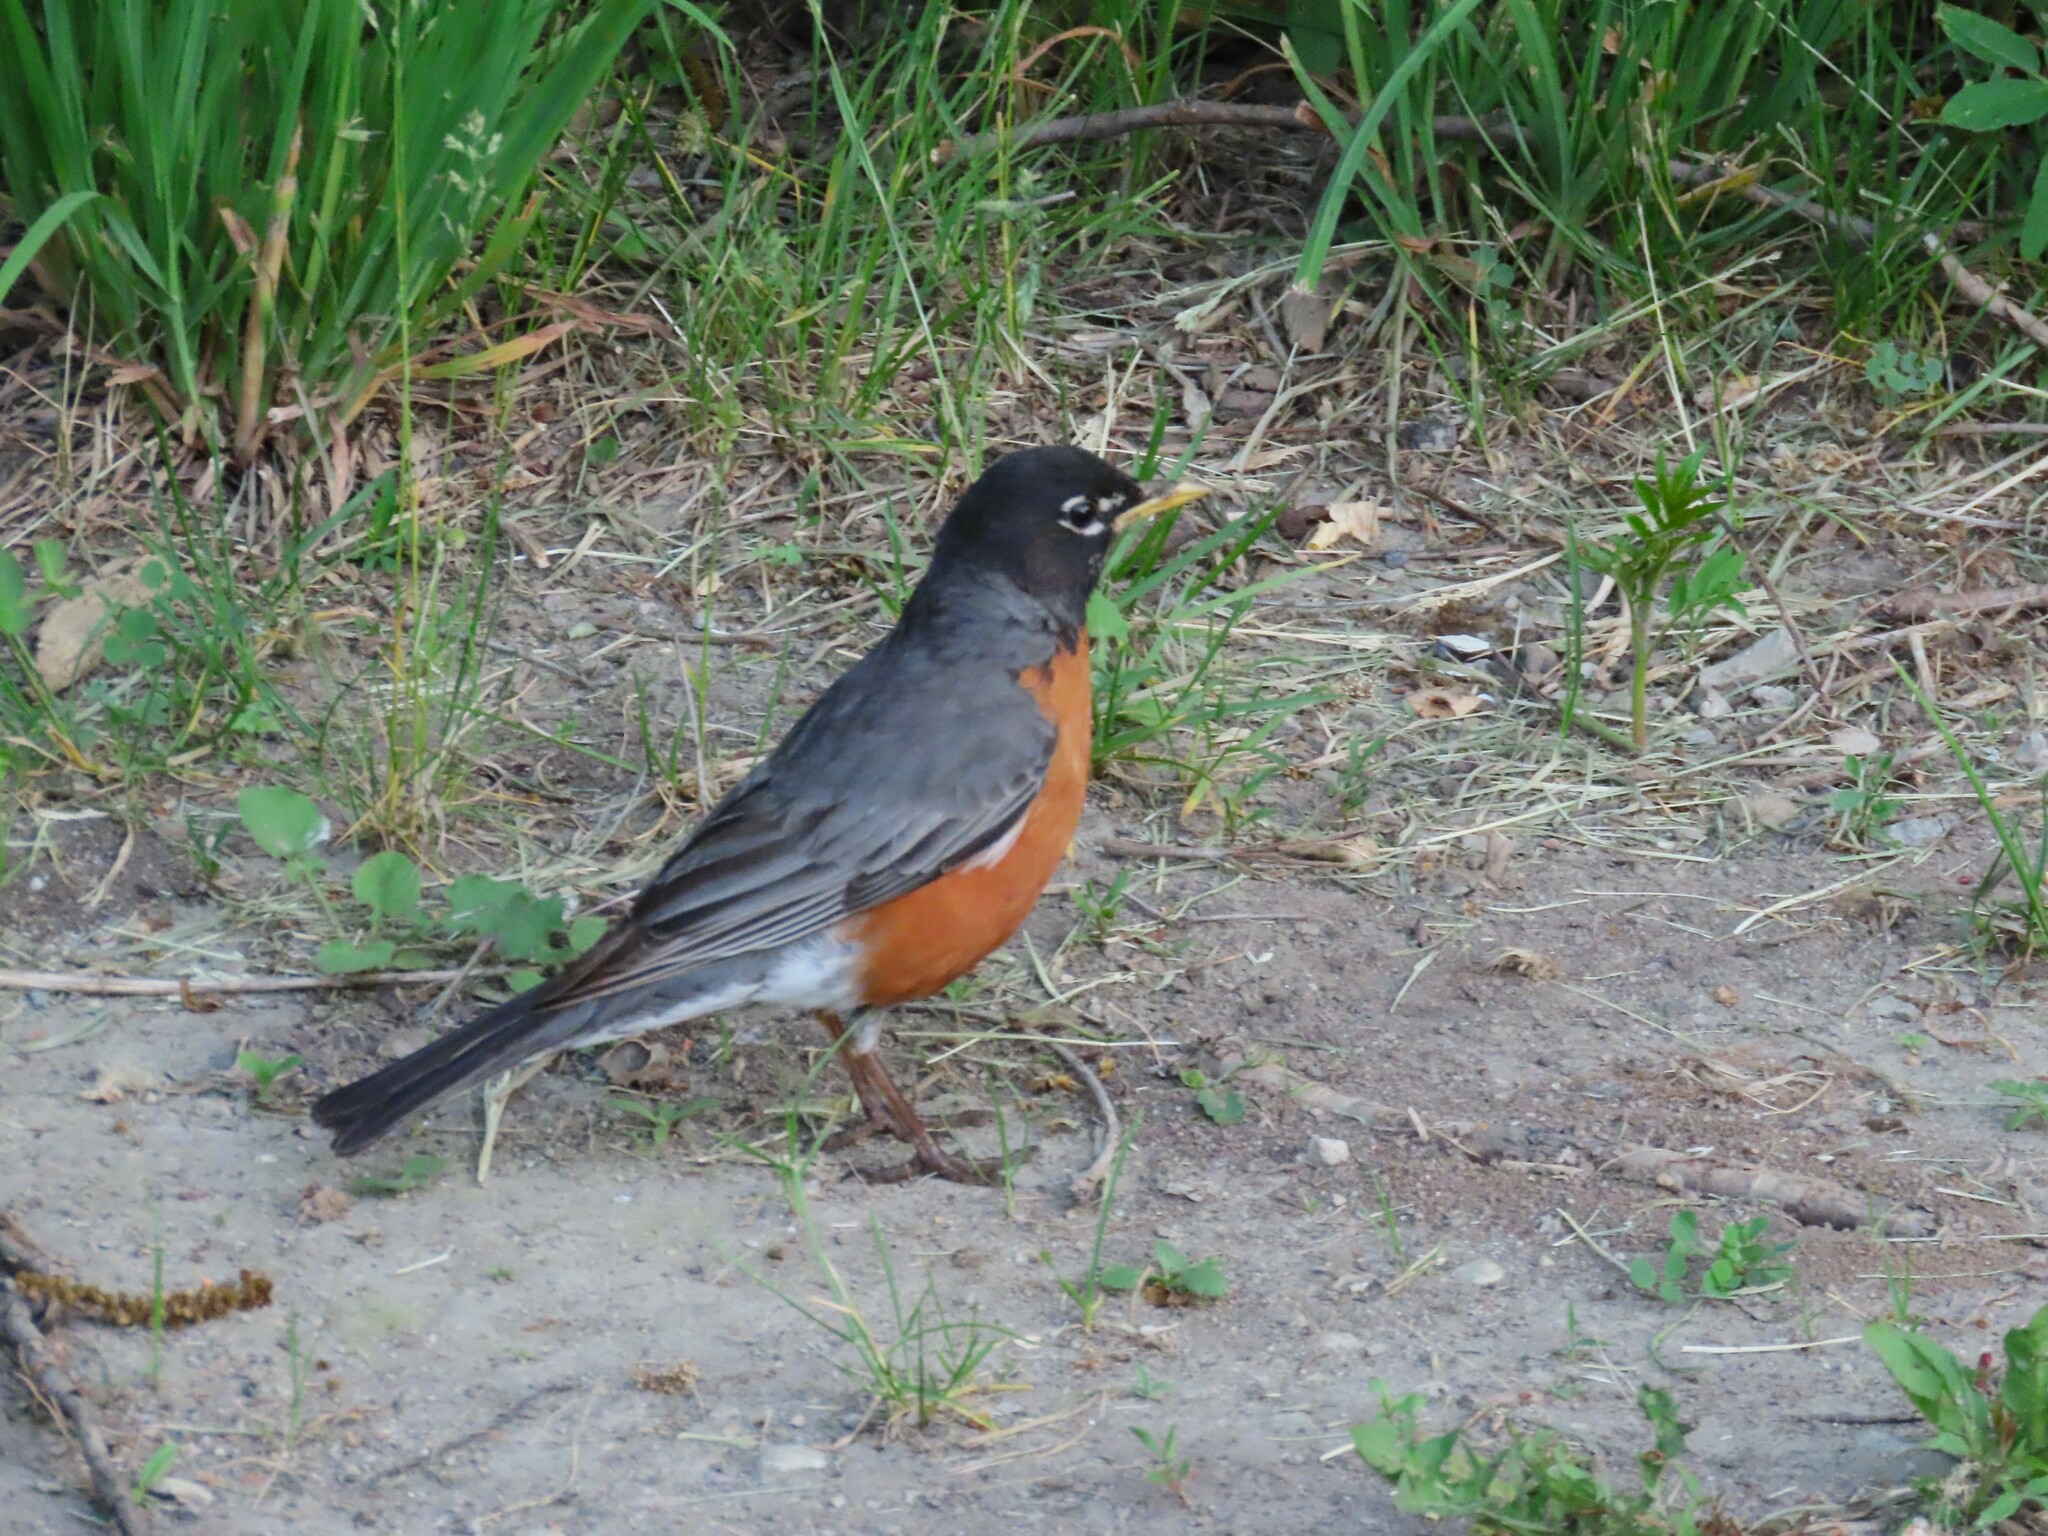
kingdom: Animalia
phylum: Chordata
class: Aves
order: Passeriformes
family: Turdidae
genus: Turdus
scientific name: Turdus migratorius
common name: American robin
